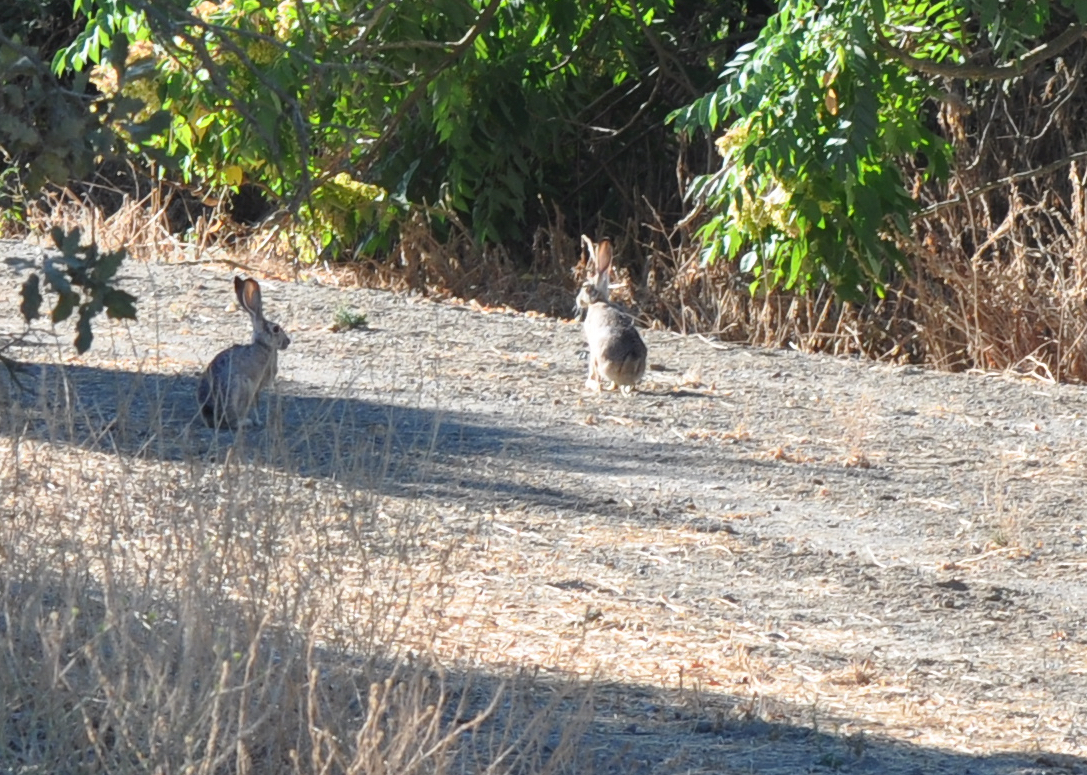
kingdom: Animalia
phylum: Chordata
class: Mammalia
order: Lagomorpha
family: Leporidae
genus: Lepus
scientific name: Lepus californicus
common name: Black-tailed jackrabbit
